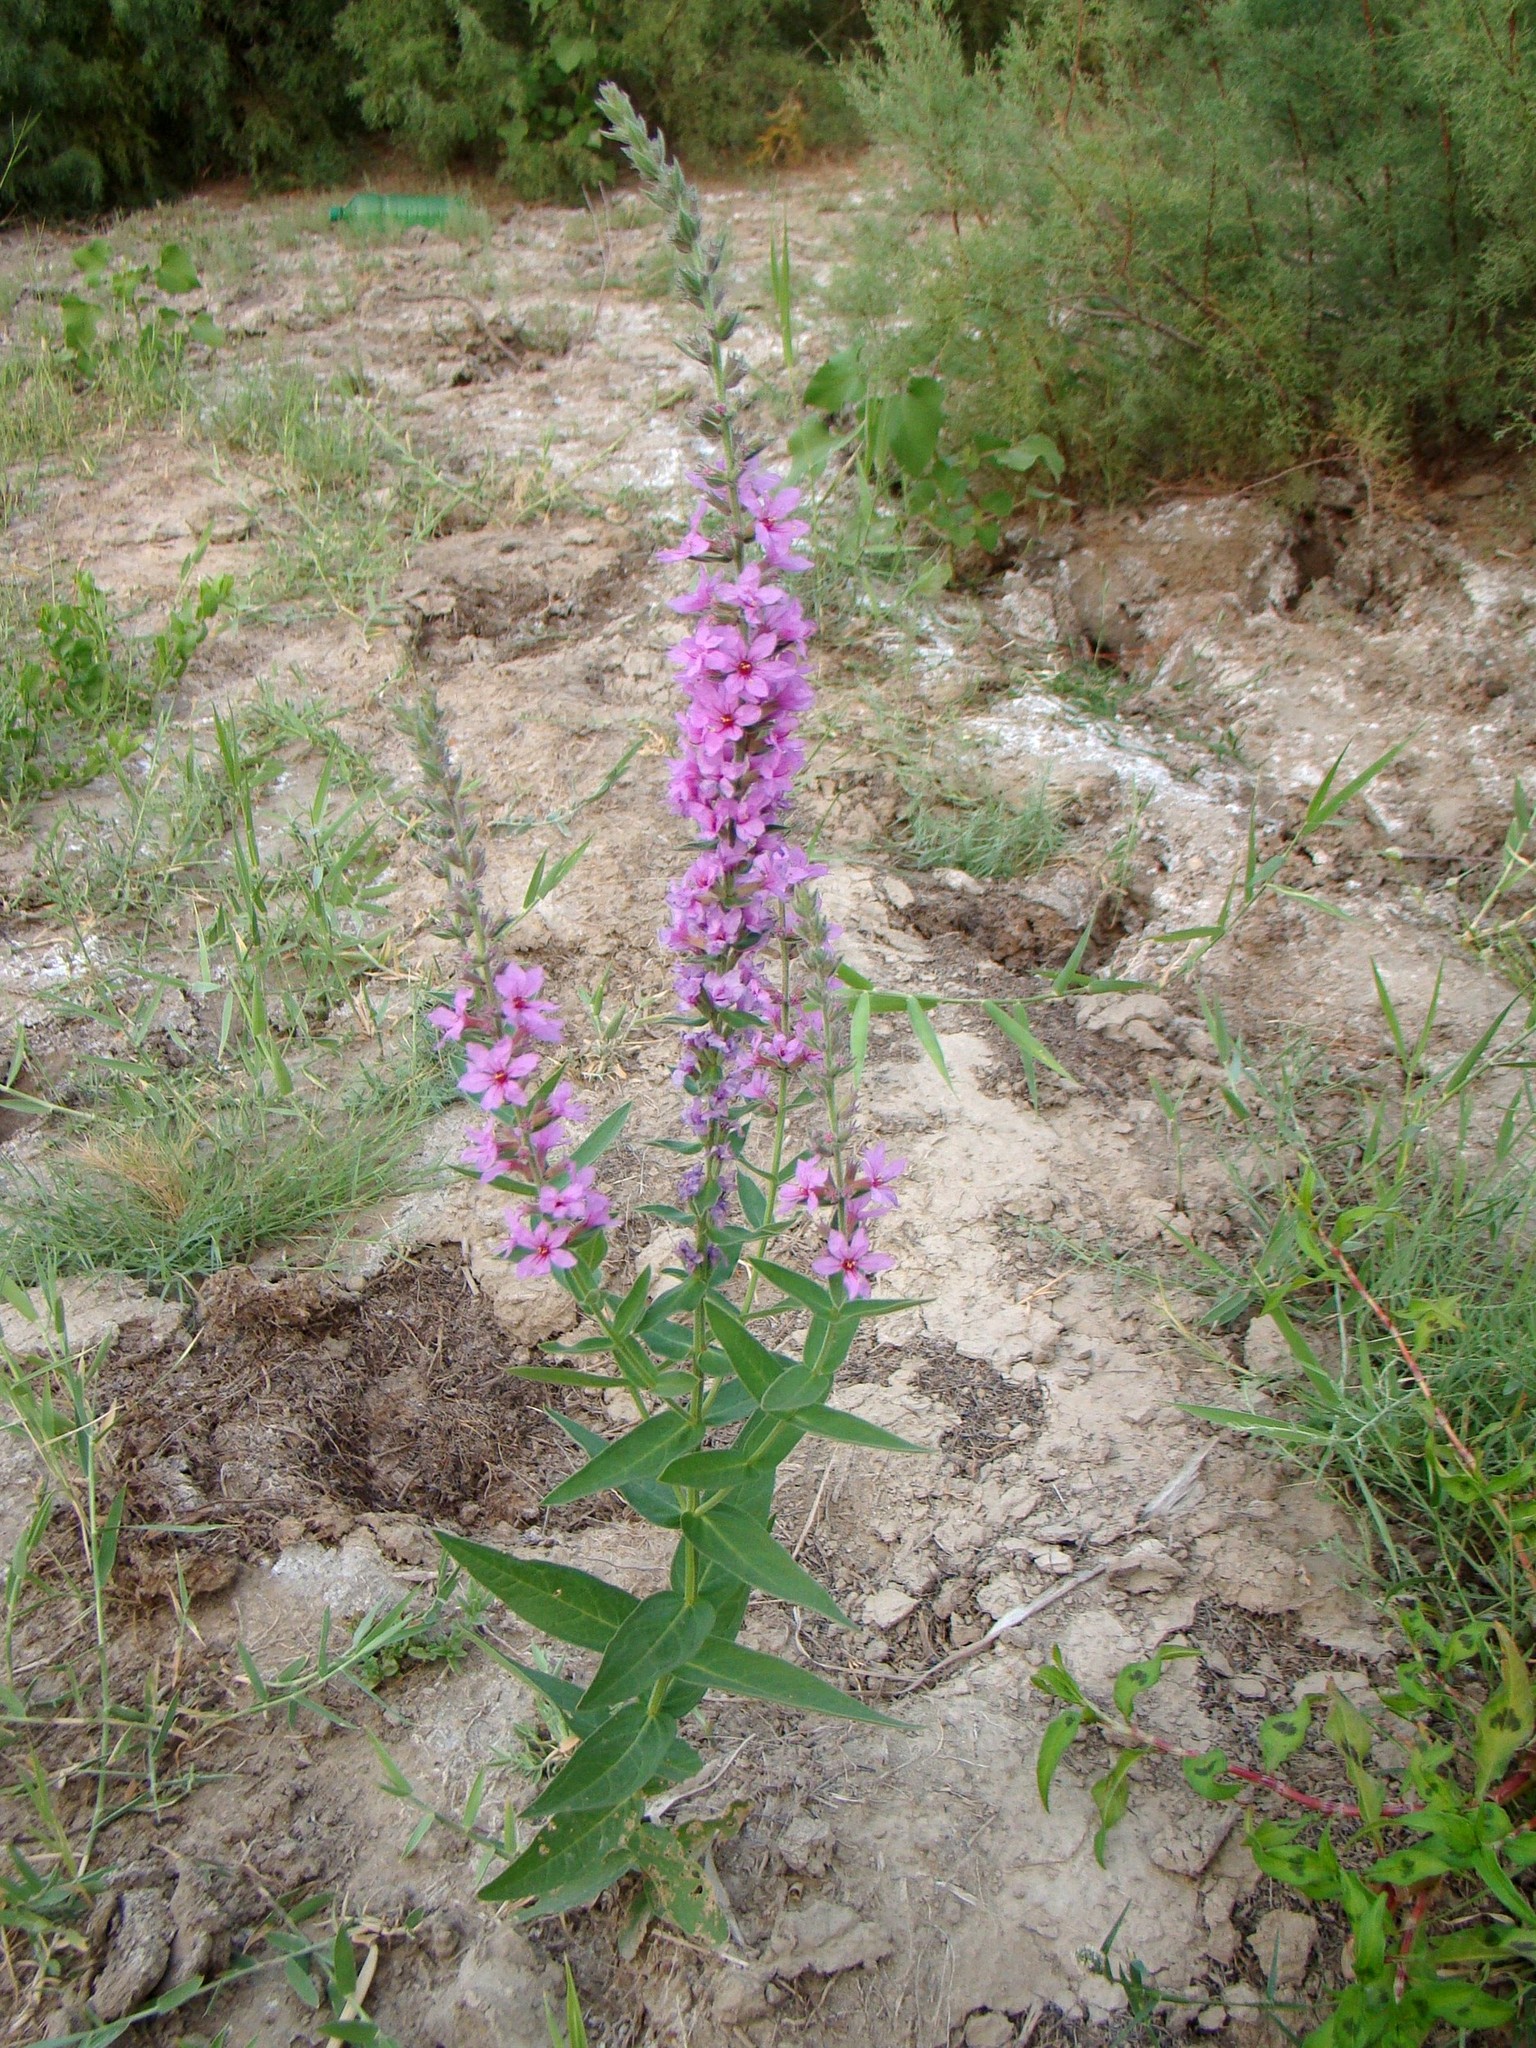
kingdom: Plantae
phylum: Tracheophyta
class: Magnoliopsida
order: Myrtales
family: Lythraceae
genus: Lythrum
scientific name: Lythrum salicaria
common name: Purple loosestrife
